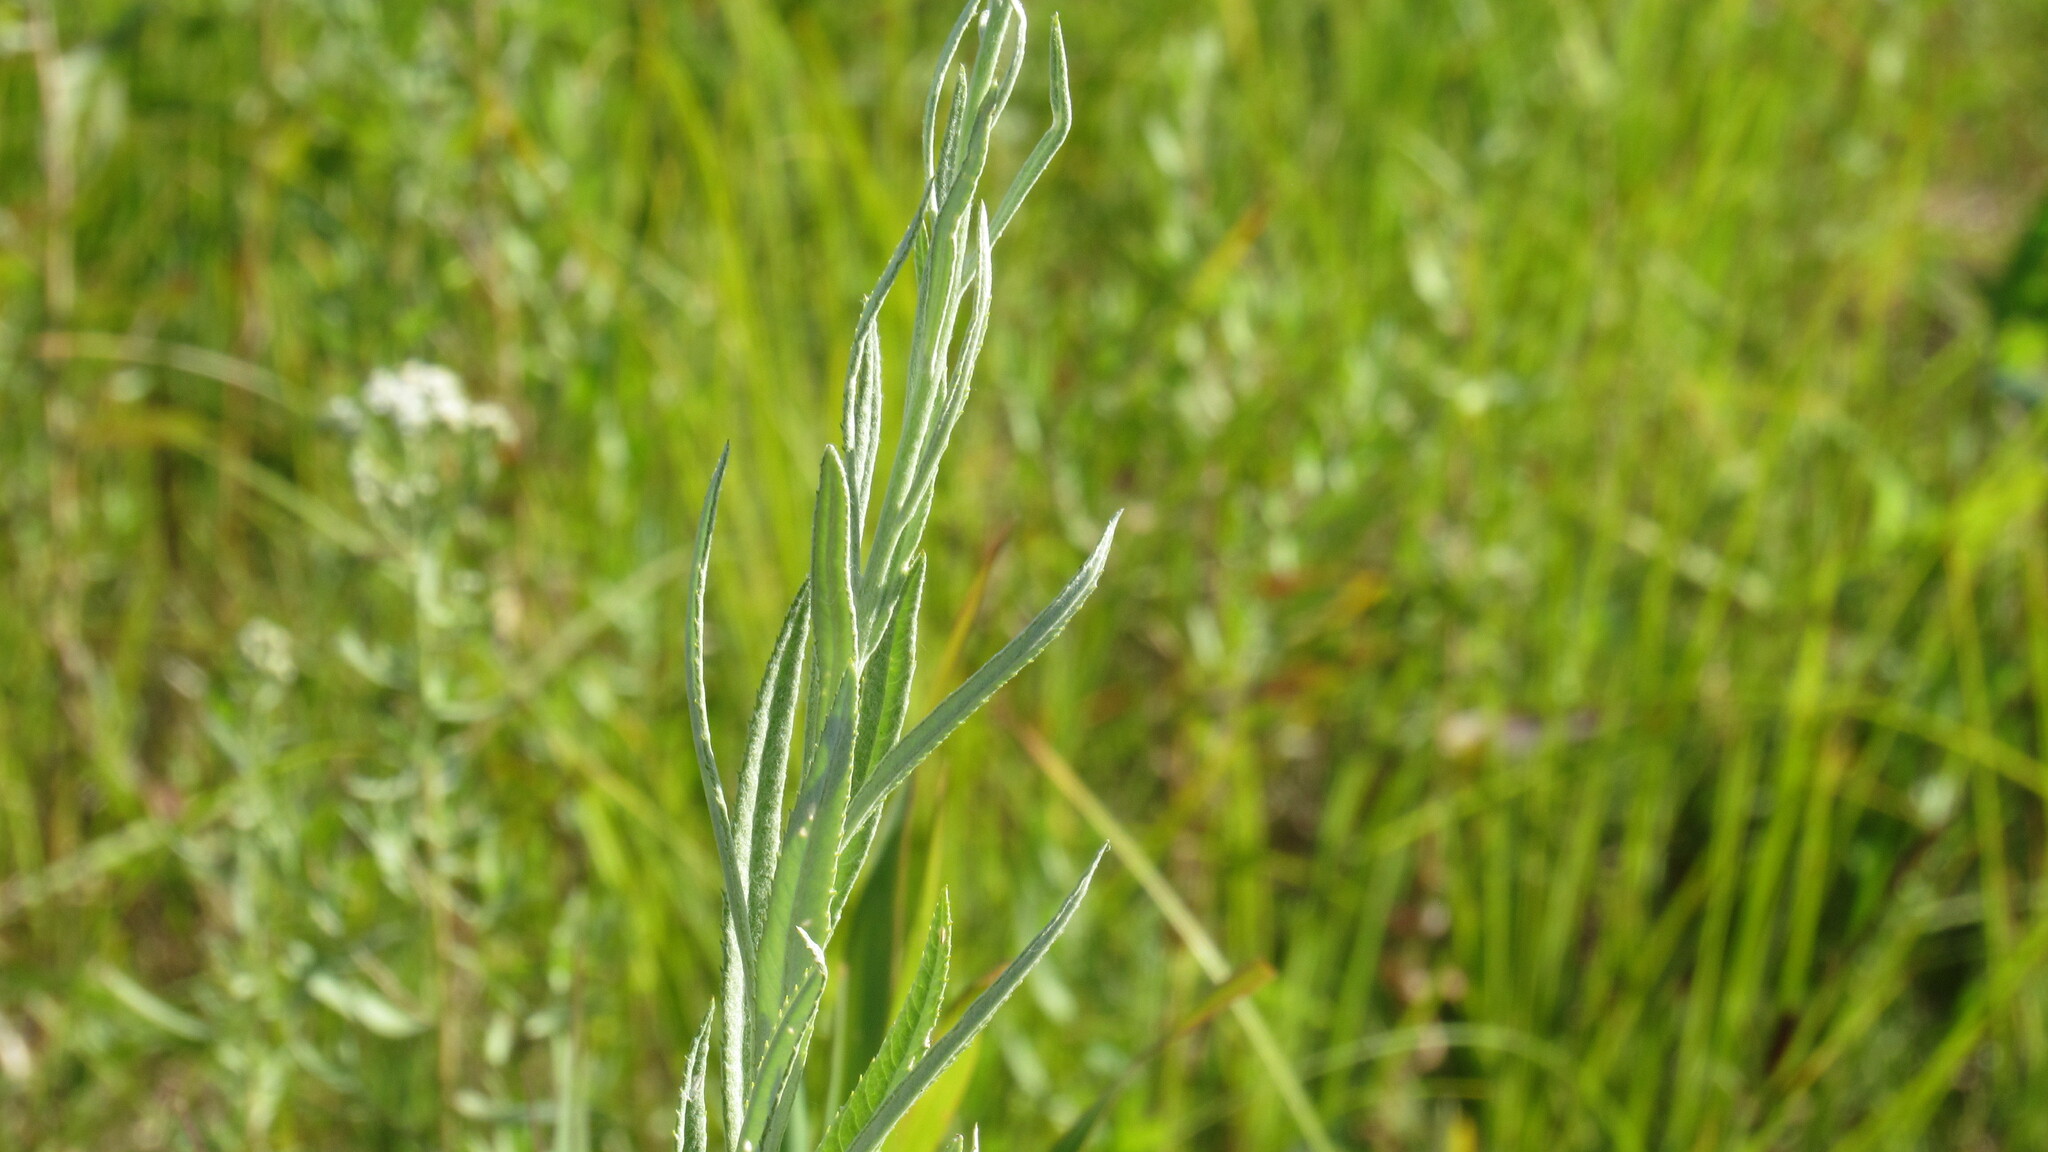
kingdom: Plantae
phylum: Tracheophyta
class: Magnoliopsida
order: Asterales
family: Asteraceae
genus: Jacobaea
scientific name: Jacobaea paludosa
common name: Fen ragwort
